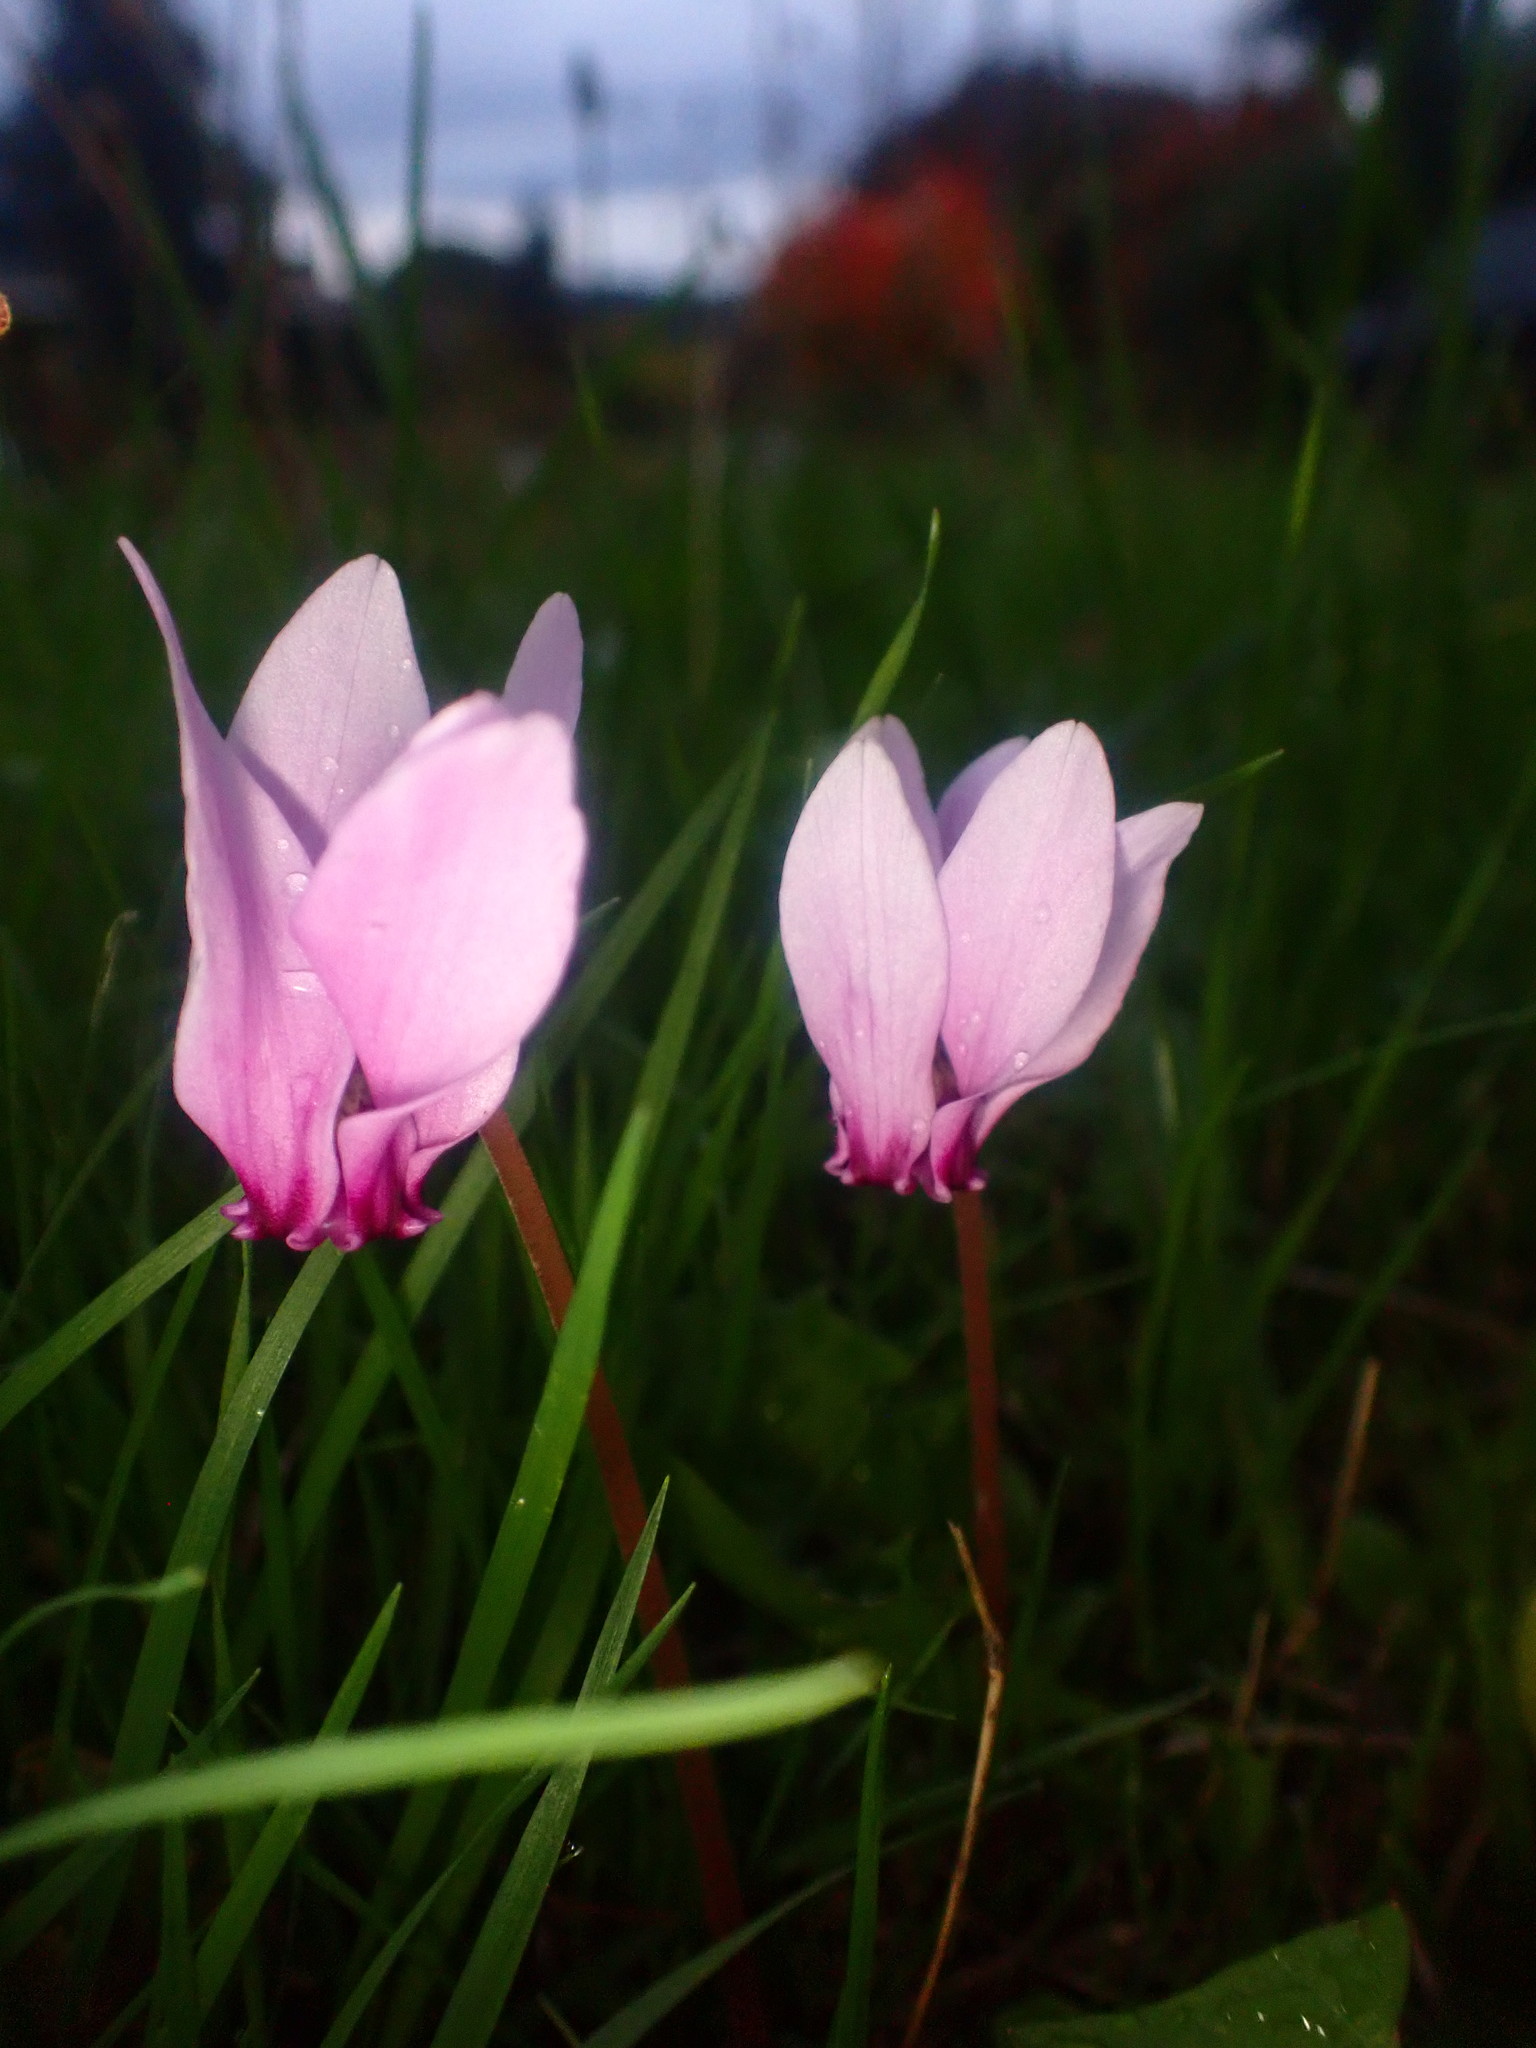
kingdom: Plantae
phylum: Tracheophyta
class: Magnoliopsida
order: Ericales
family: Primulaceae
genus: Cyclamen
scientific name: Cyclamen hederifolium
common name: Sowbread
